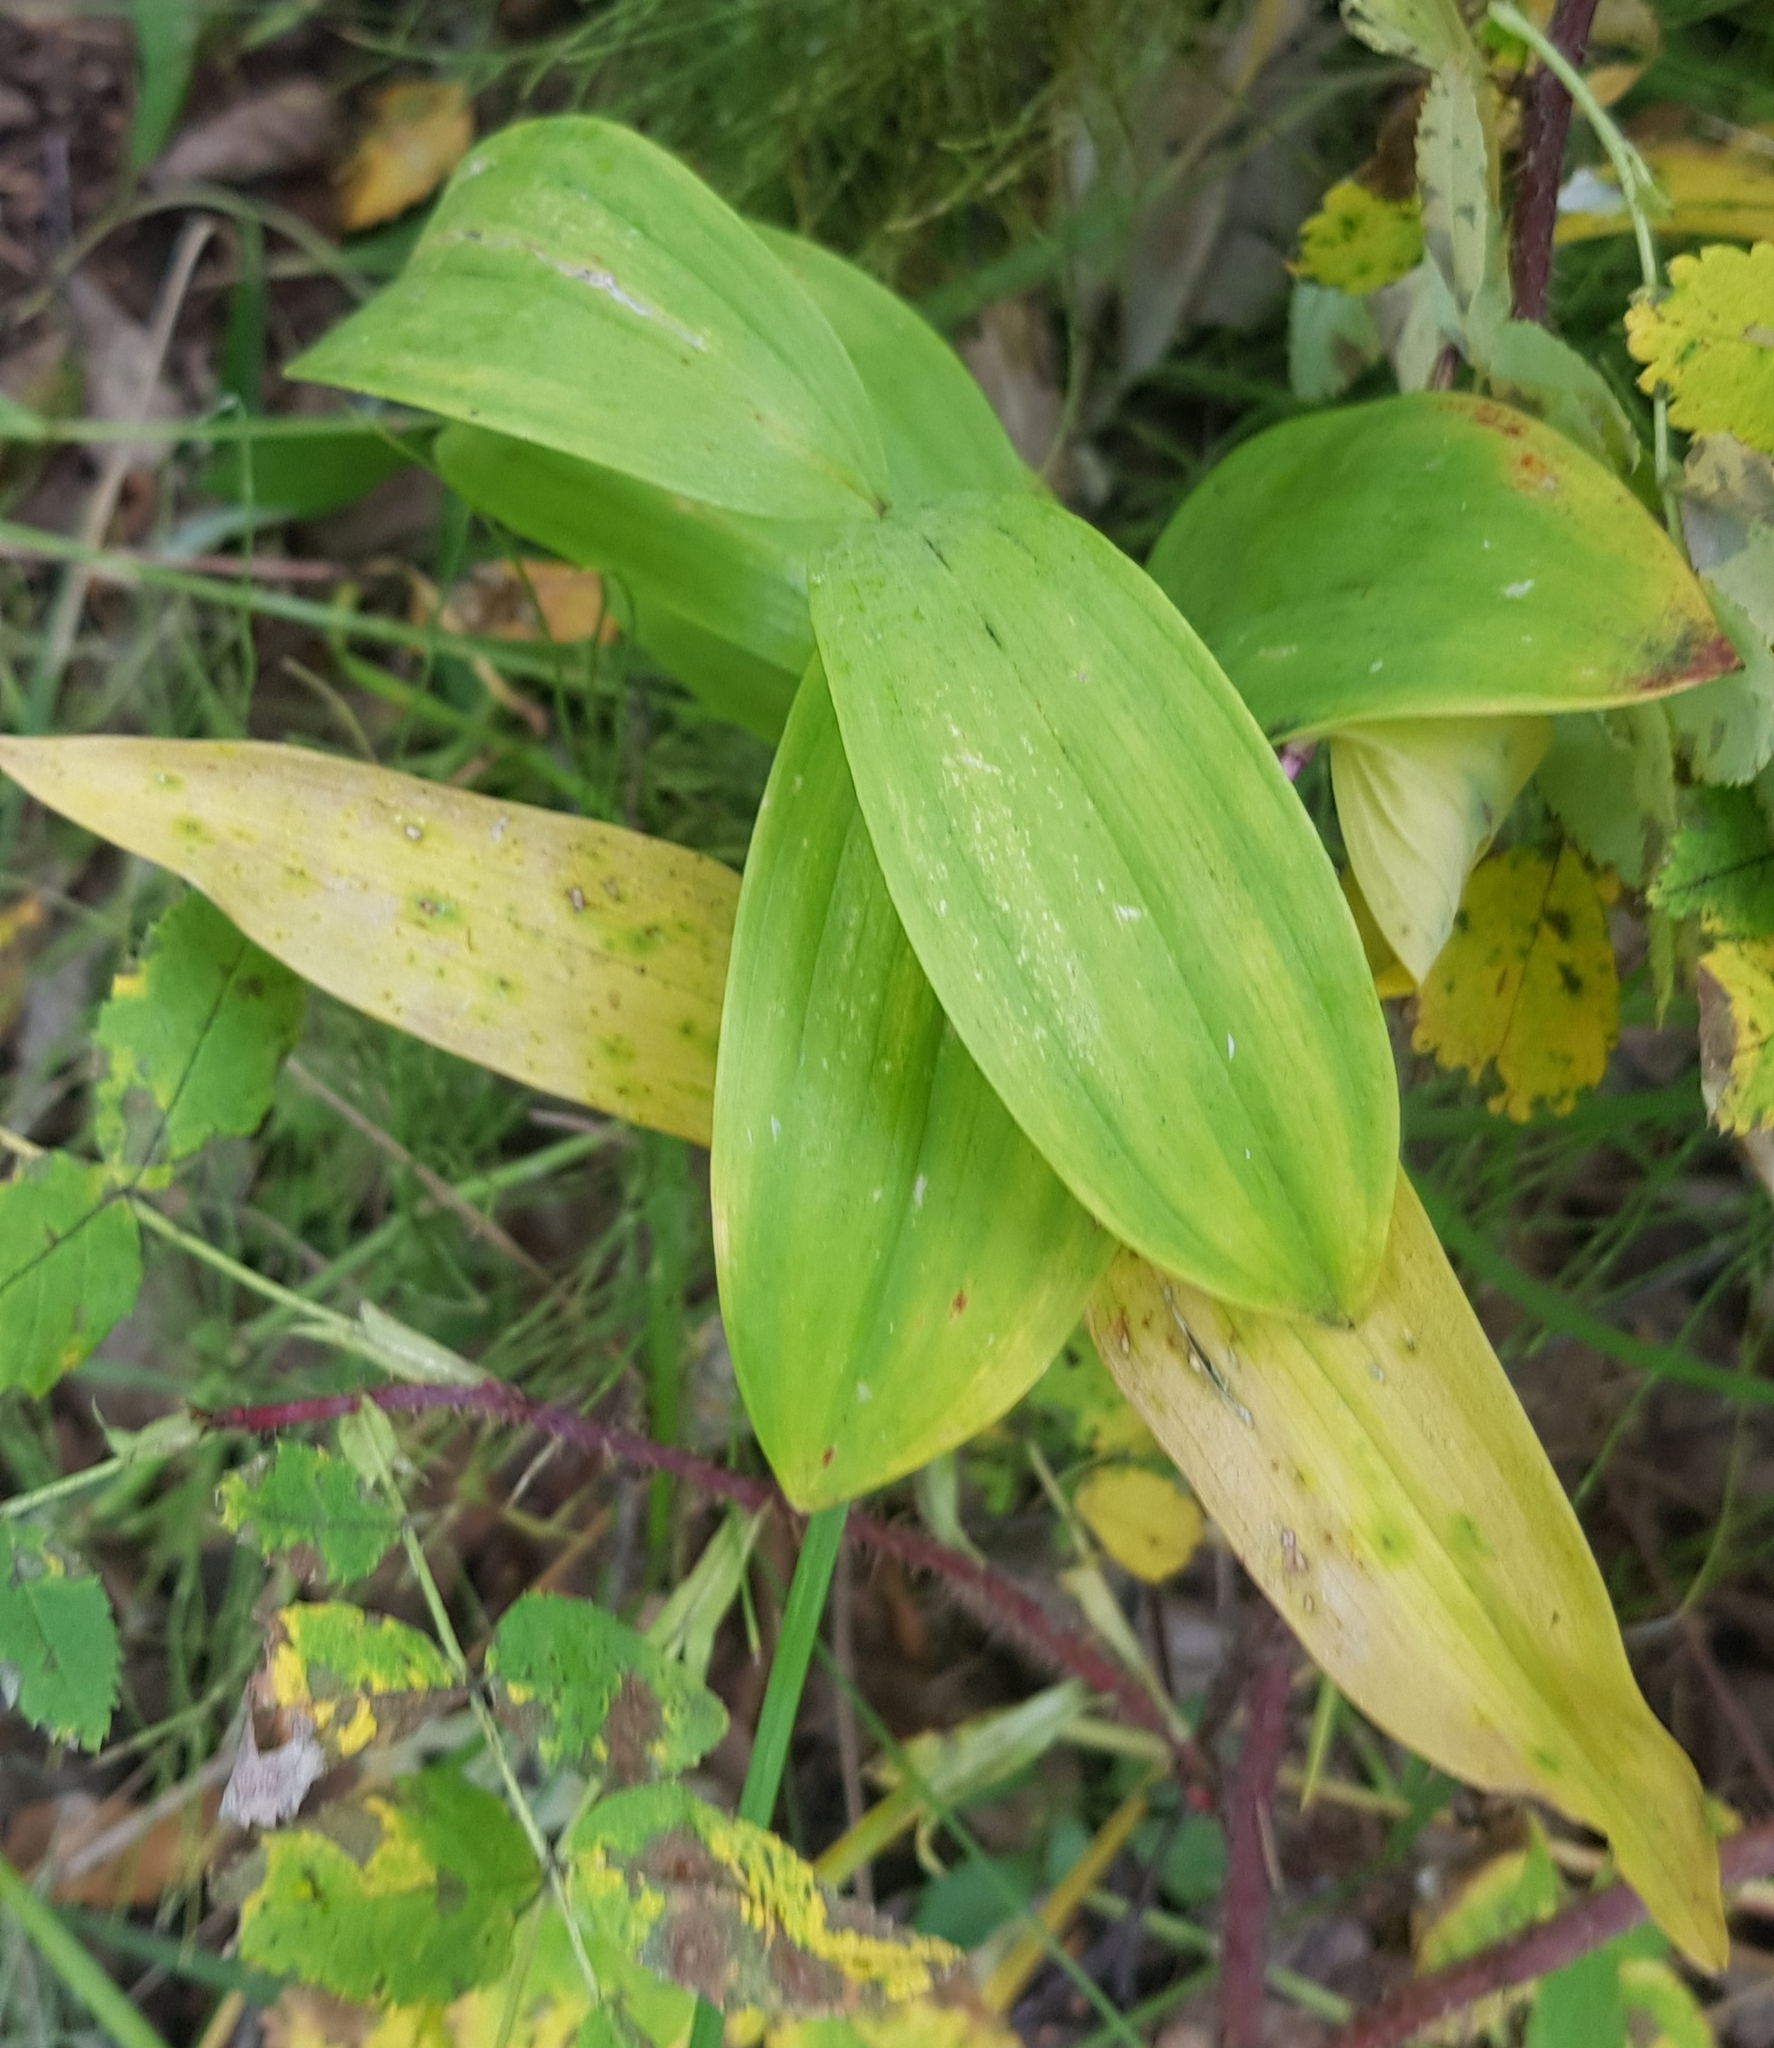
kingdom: Plantae
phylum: Tracheophyta
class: Liliopsida
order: Asparagales
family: Asparagaceae
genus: Polygonatum
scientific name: Polygonatum odoratum
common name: Angular solomon's-seal
